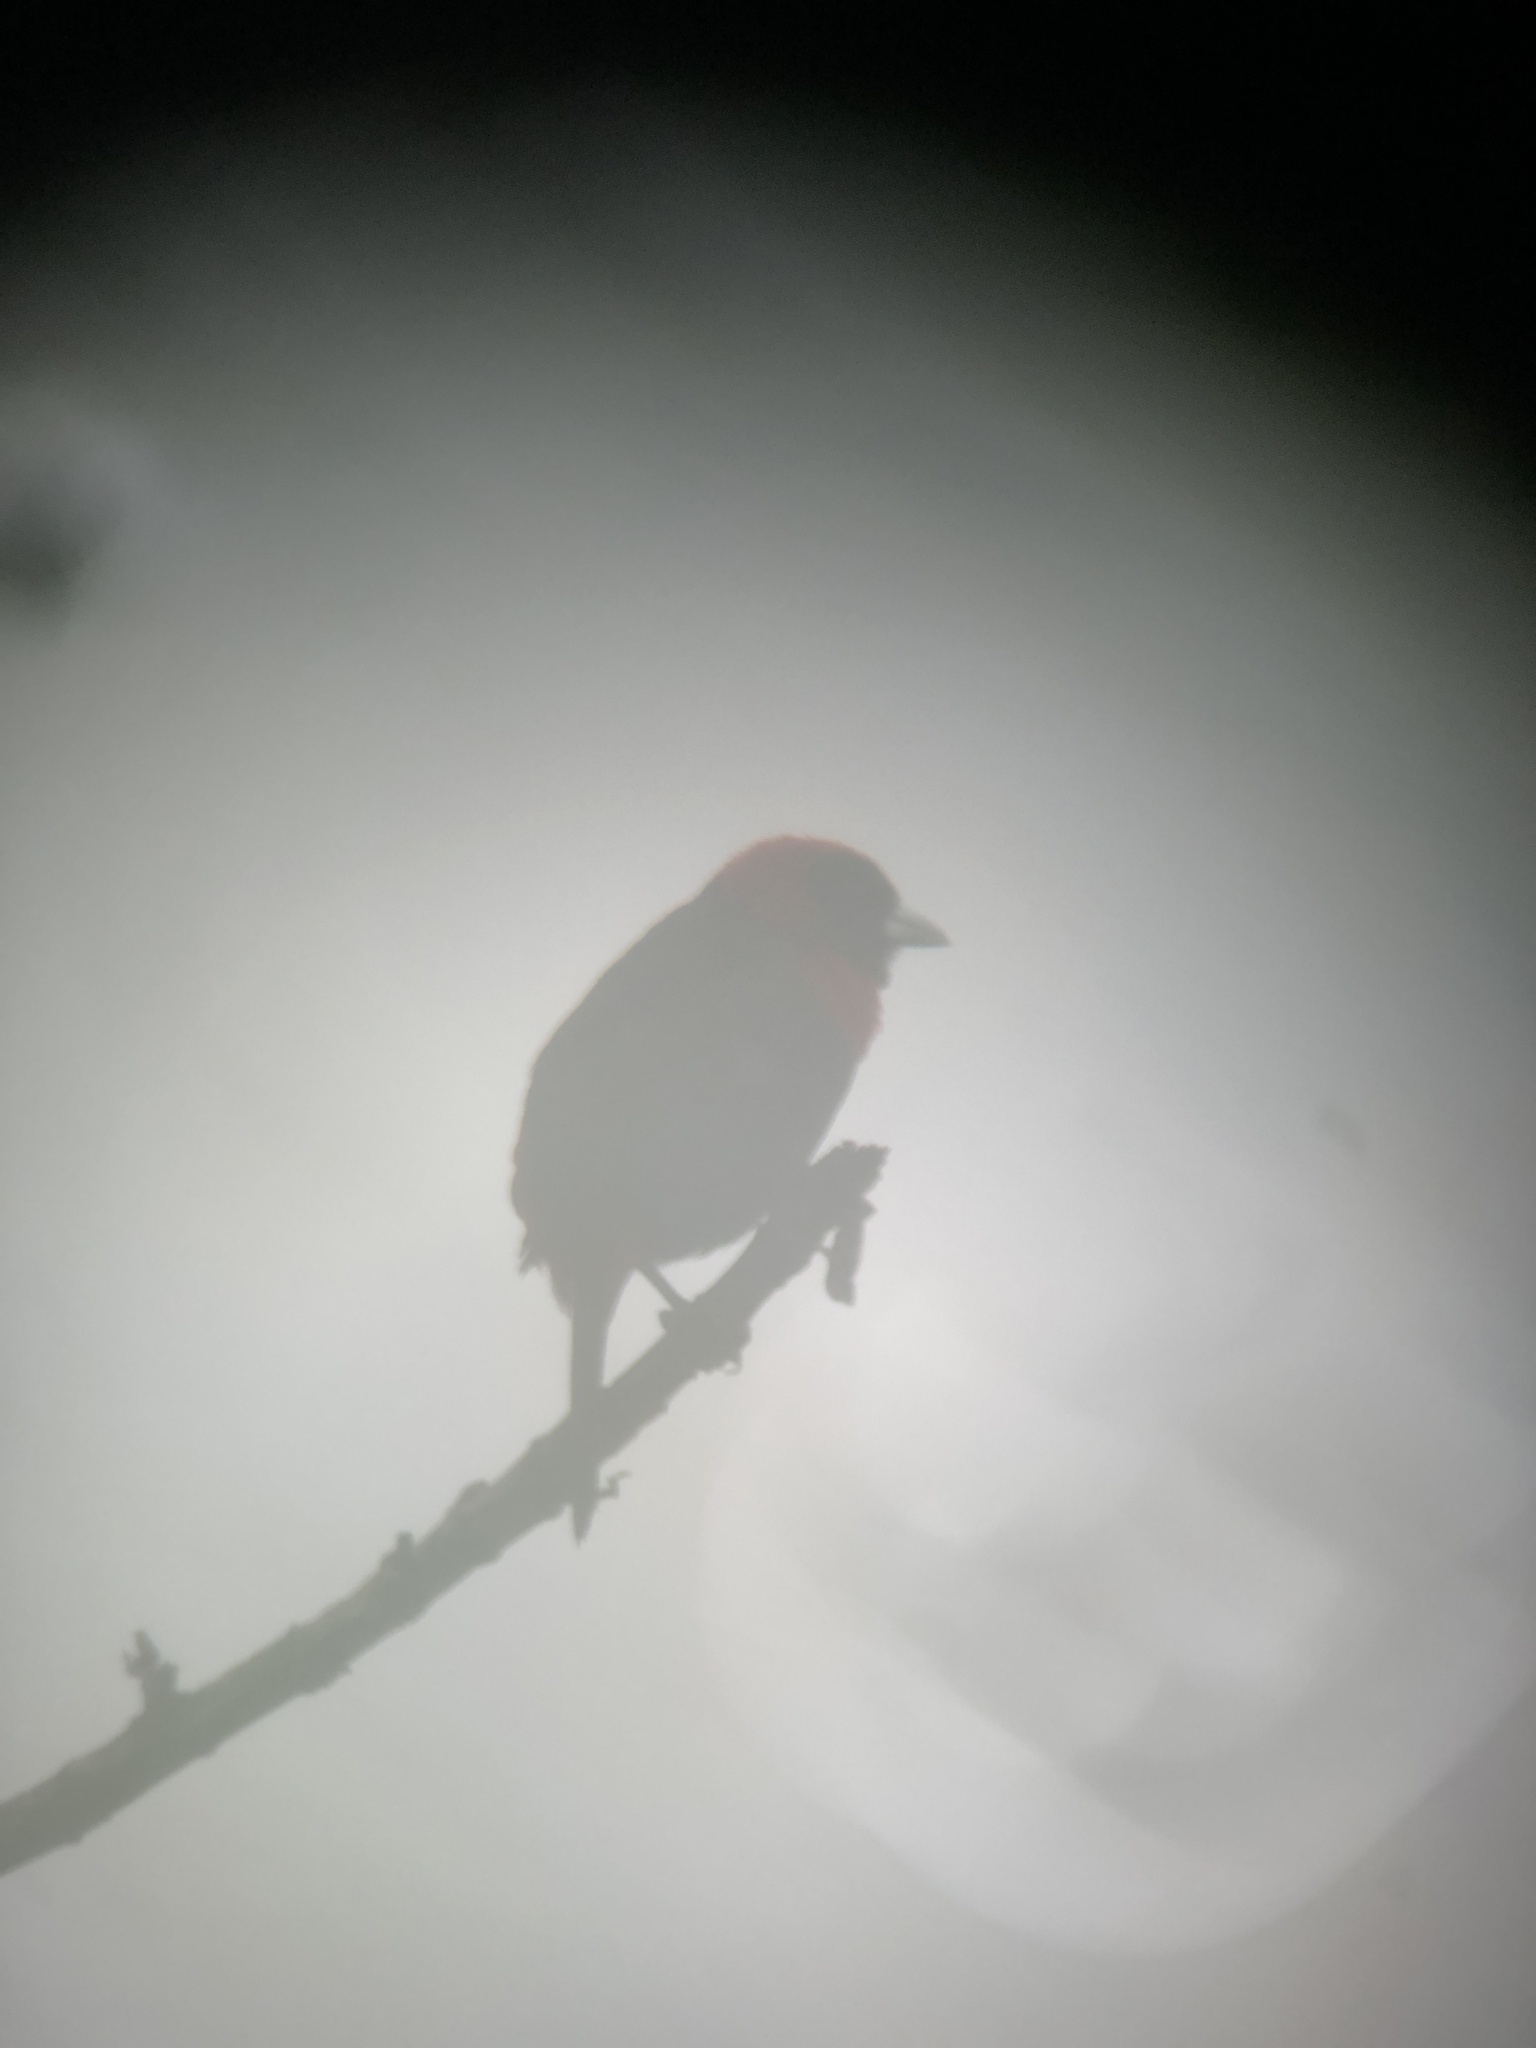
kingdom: Animalia
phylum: Chordata
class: Aves
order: Passeriformes
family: Thraupidae
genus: Ramphocelus
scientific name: Ramphocelus sanguinolentus
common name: Crimson-collared tanager
